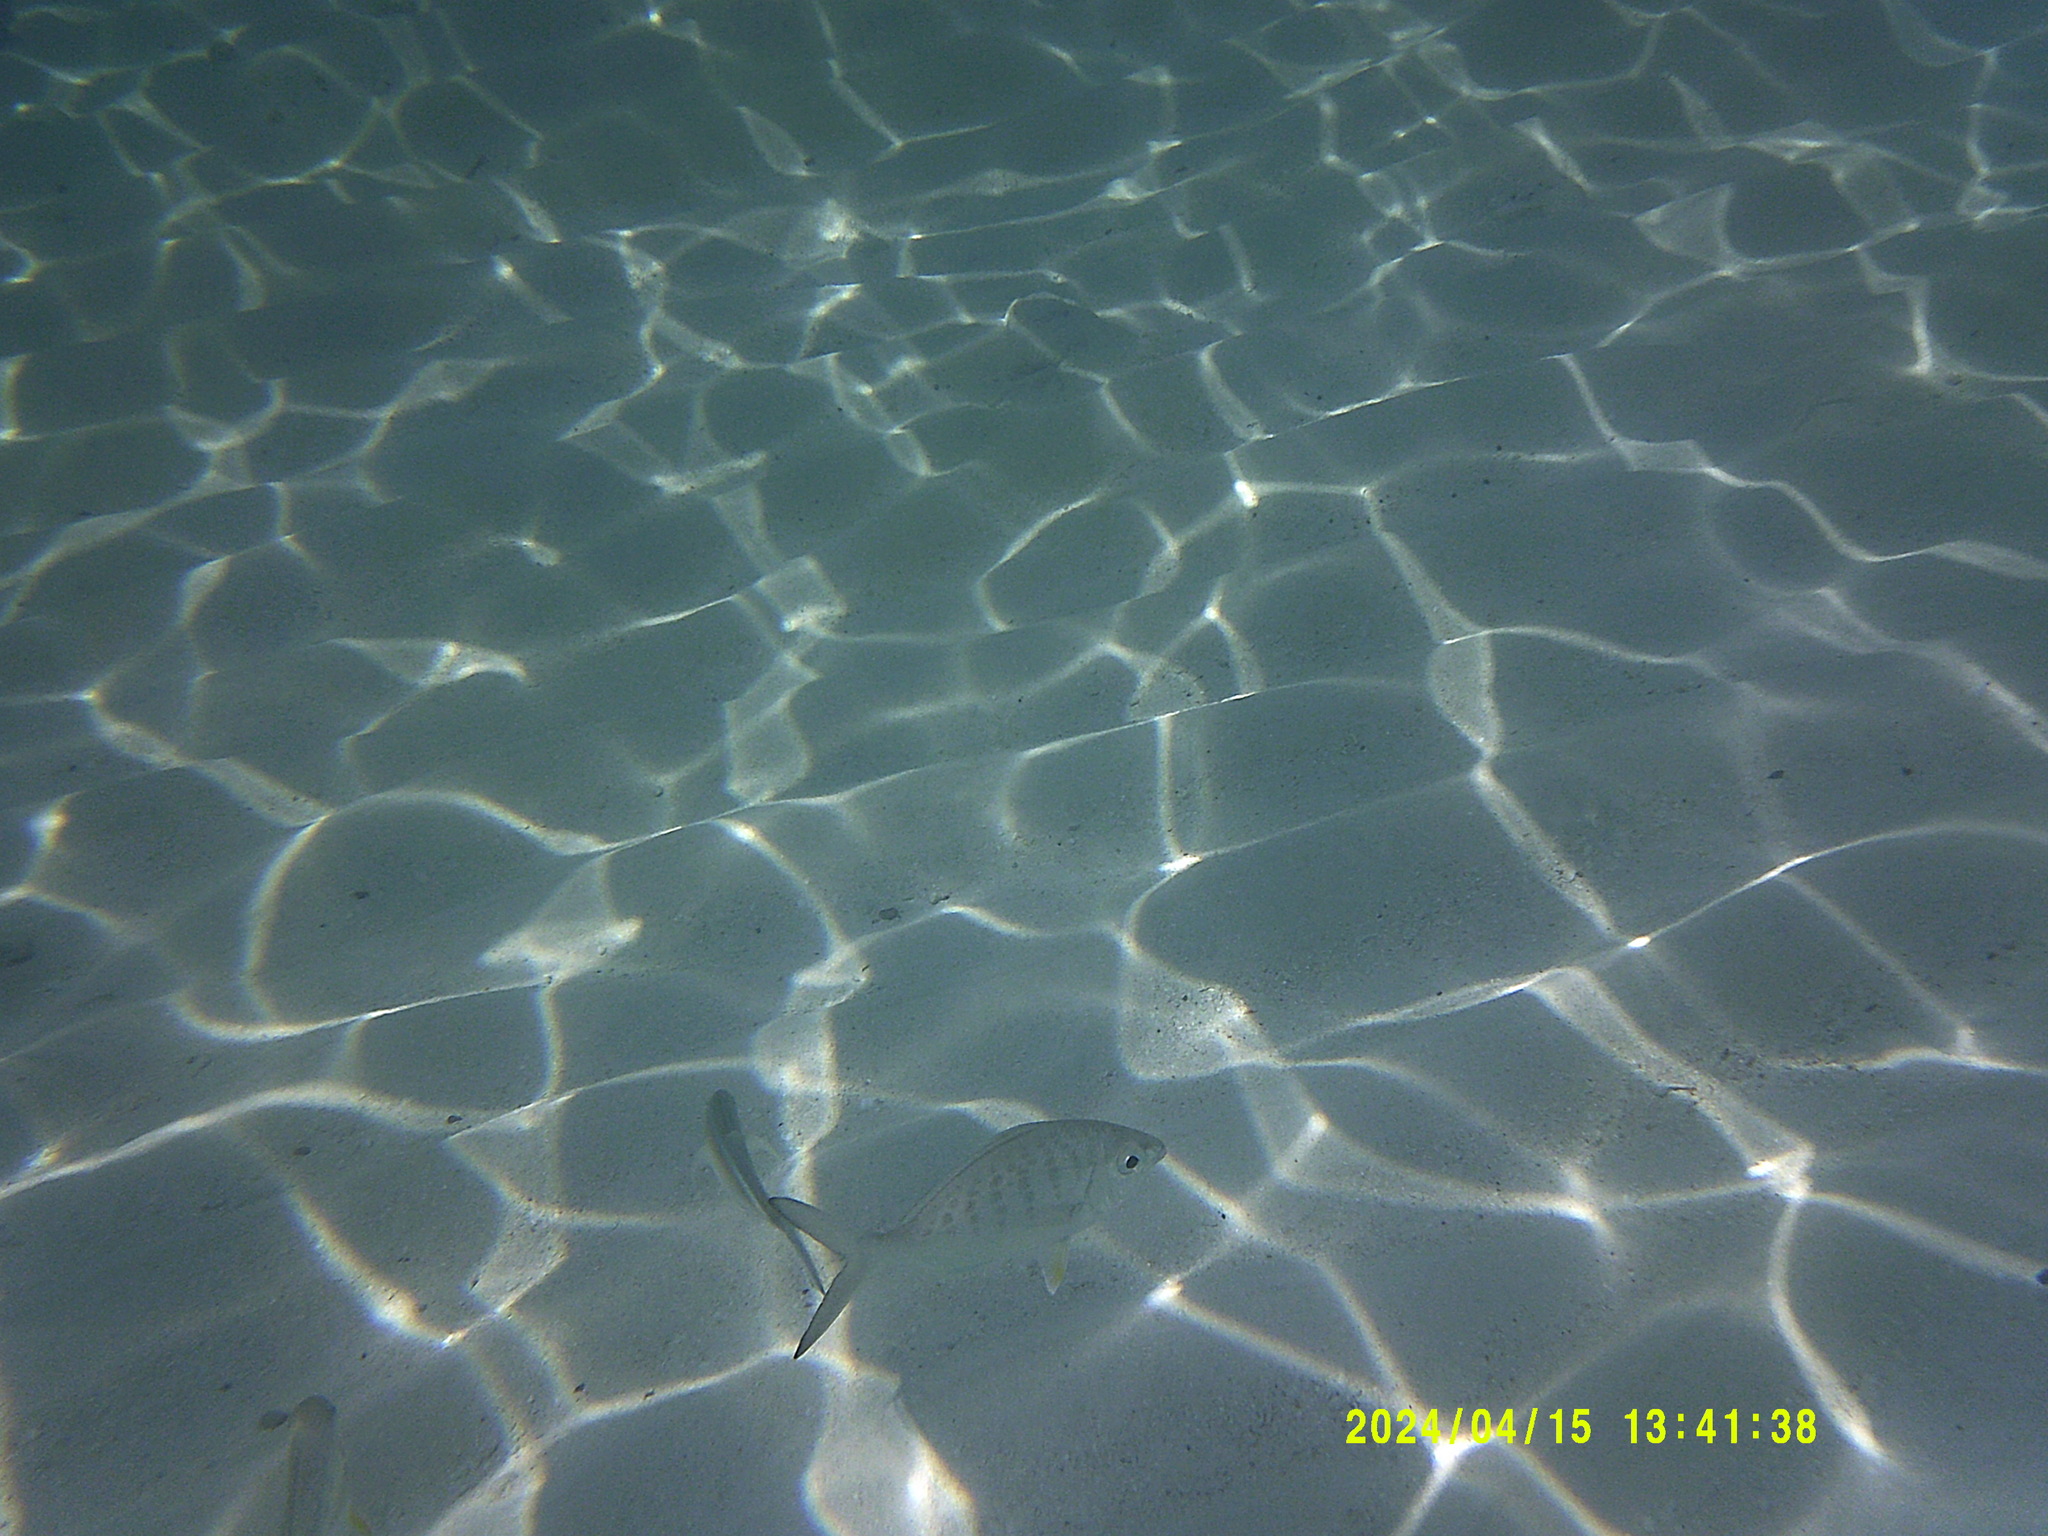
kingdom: Animalia
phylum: Chordata
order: Perciformes
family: Gerreidae
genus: Gerres
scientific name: Gerres cinereus
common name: Hedow
